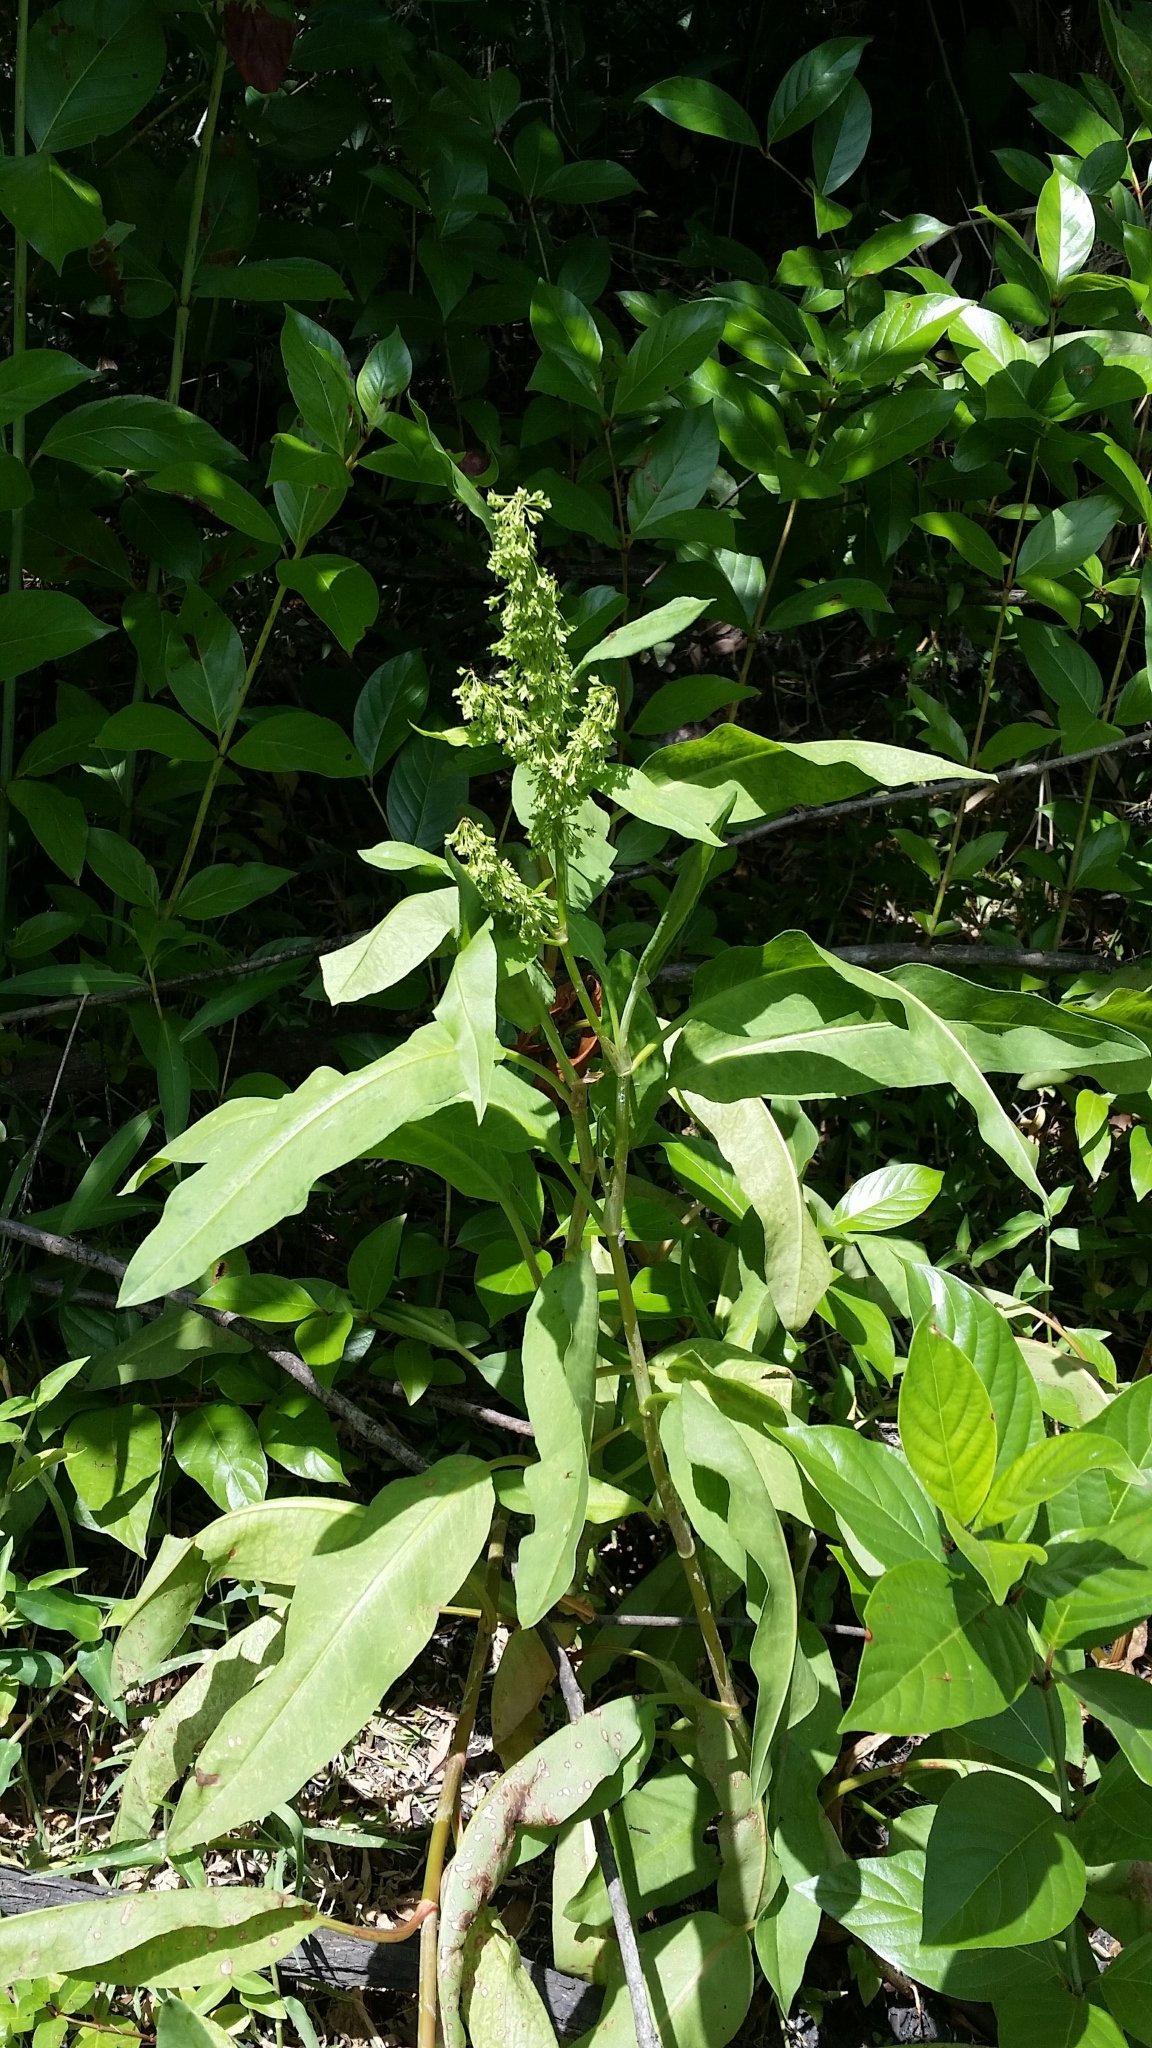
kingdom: Plantae
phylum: Tracheophyta
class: Magnoliopsida
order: Caryophyllales
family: Polygonaceae
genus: Rumex
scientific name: Rumex verticillatus
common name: Swamp dock
